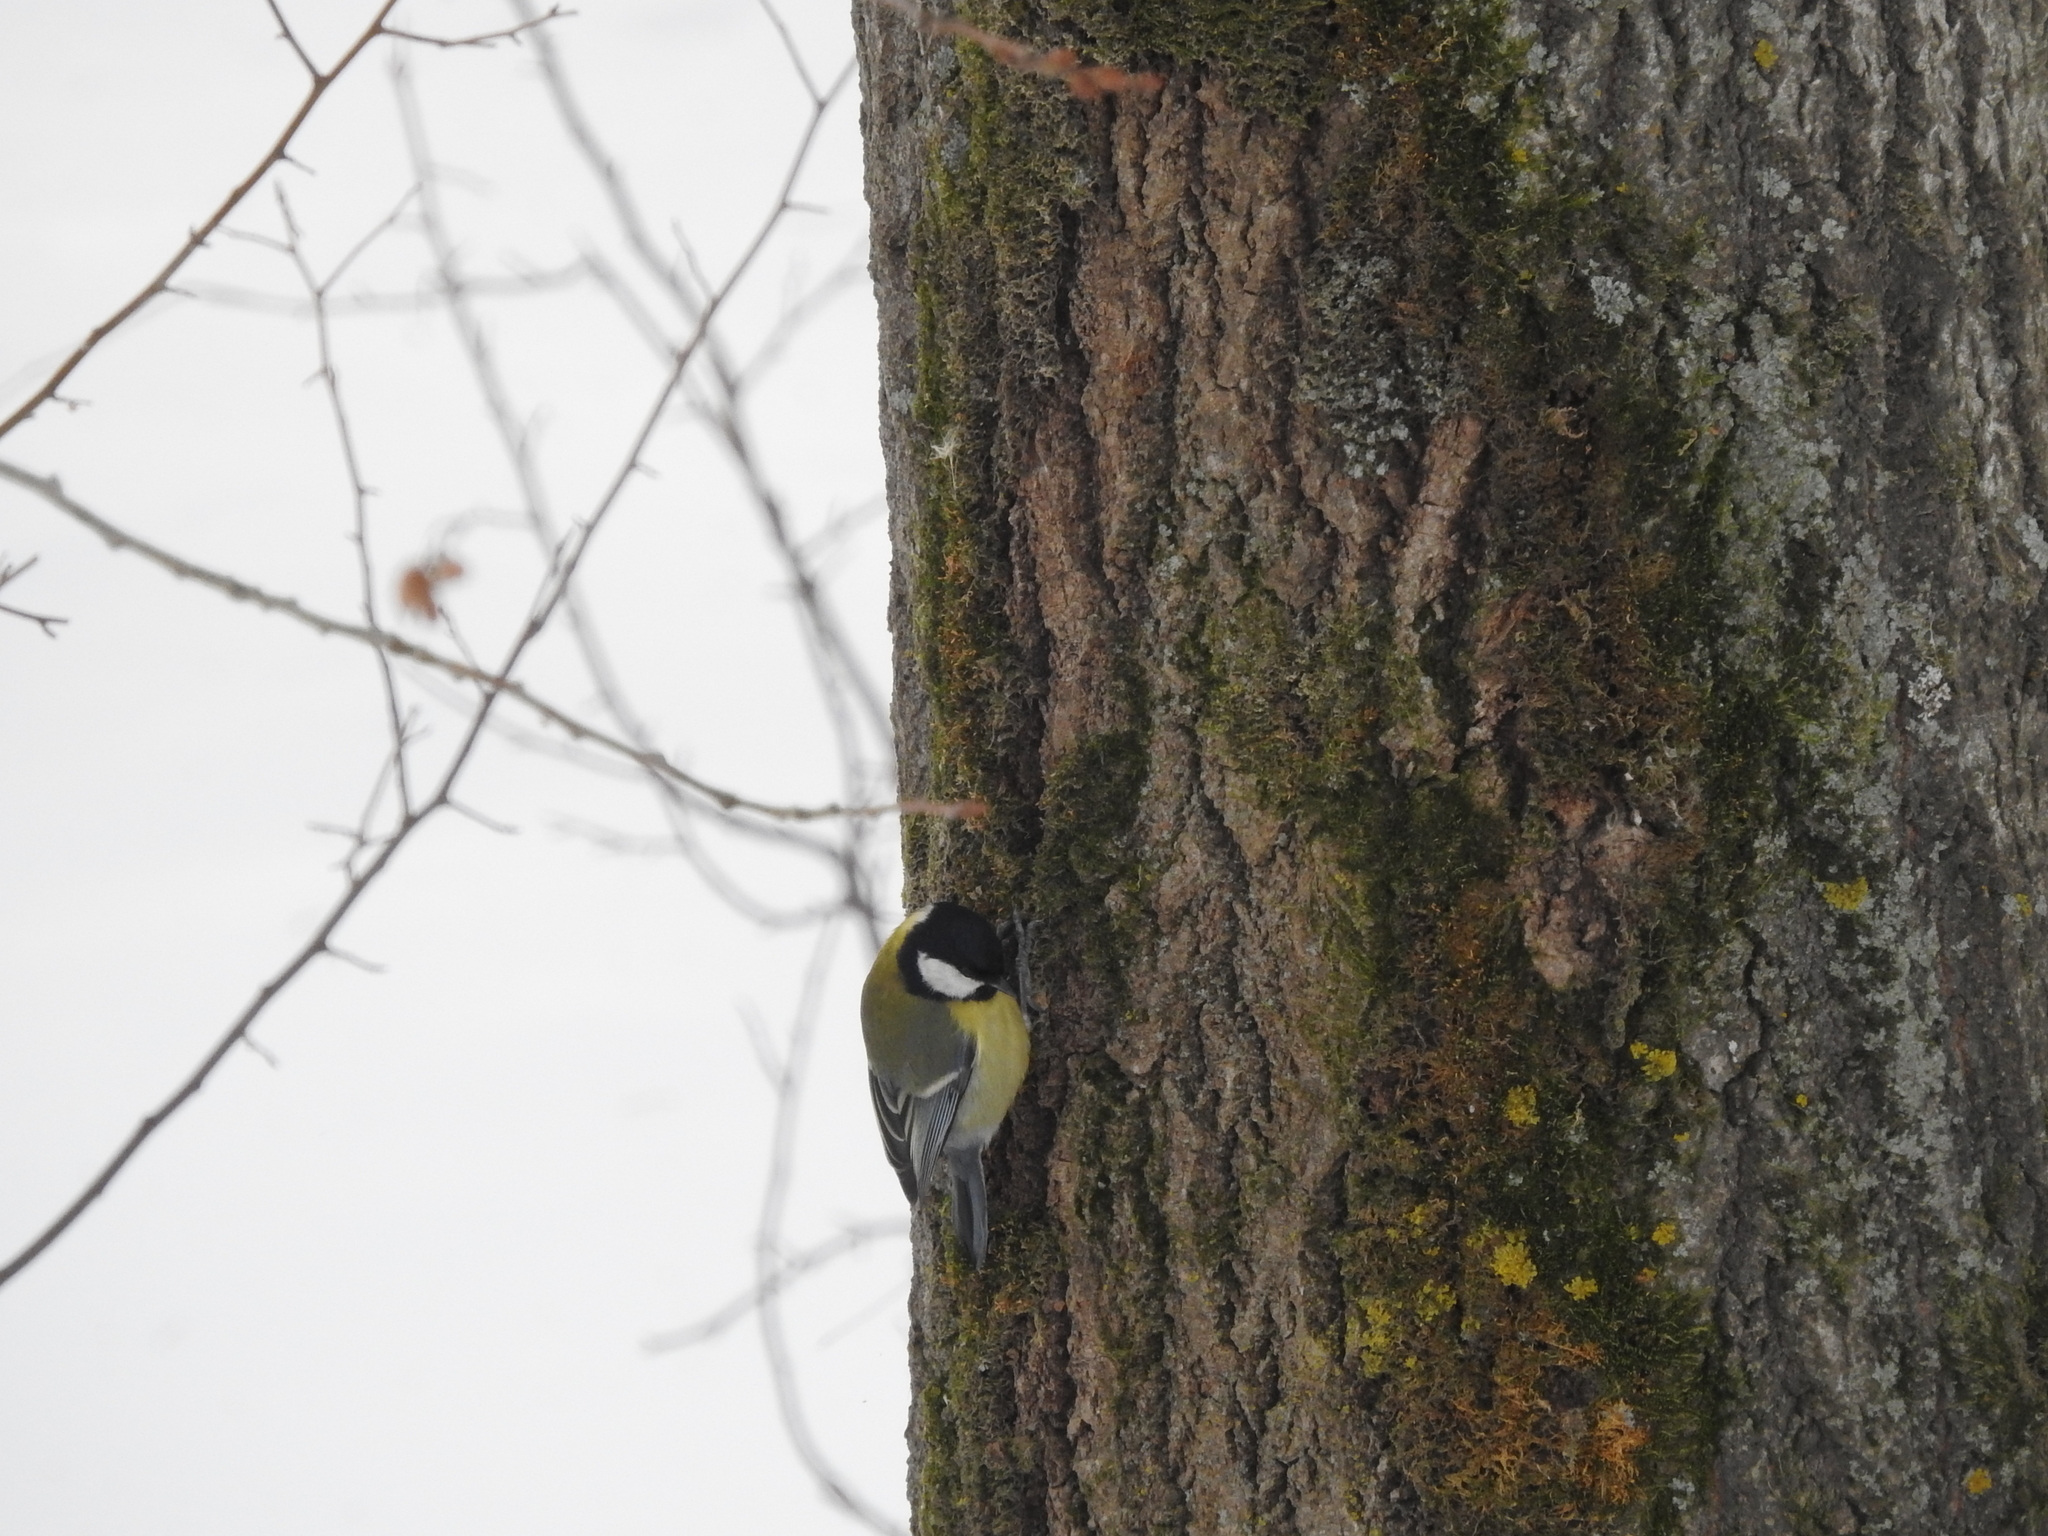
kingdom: Animalia
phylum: Chordata
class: Aves
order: Passeriformes
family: Paridae
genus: Parus
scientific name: Parus major
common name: Great tit
